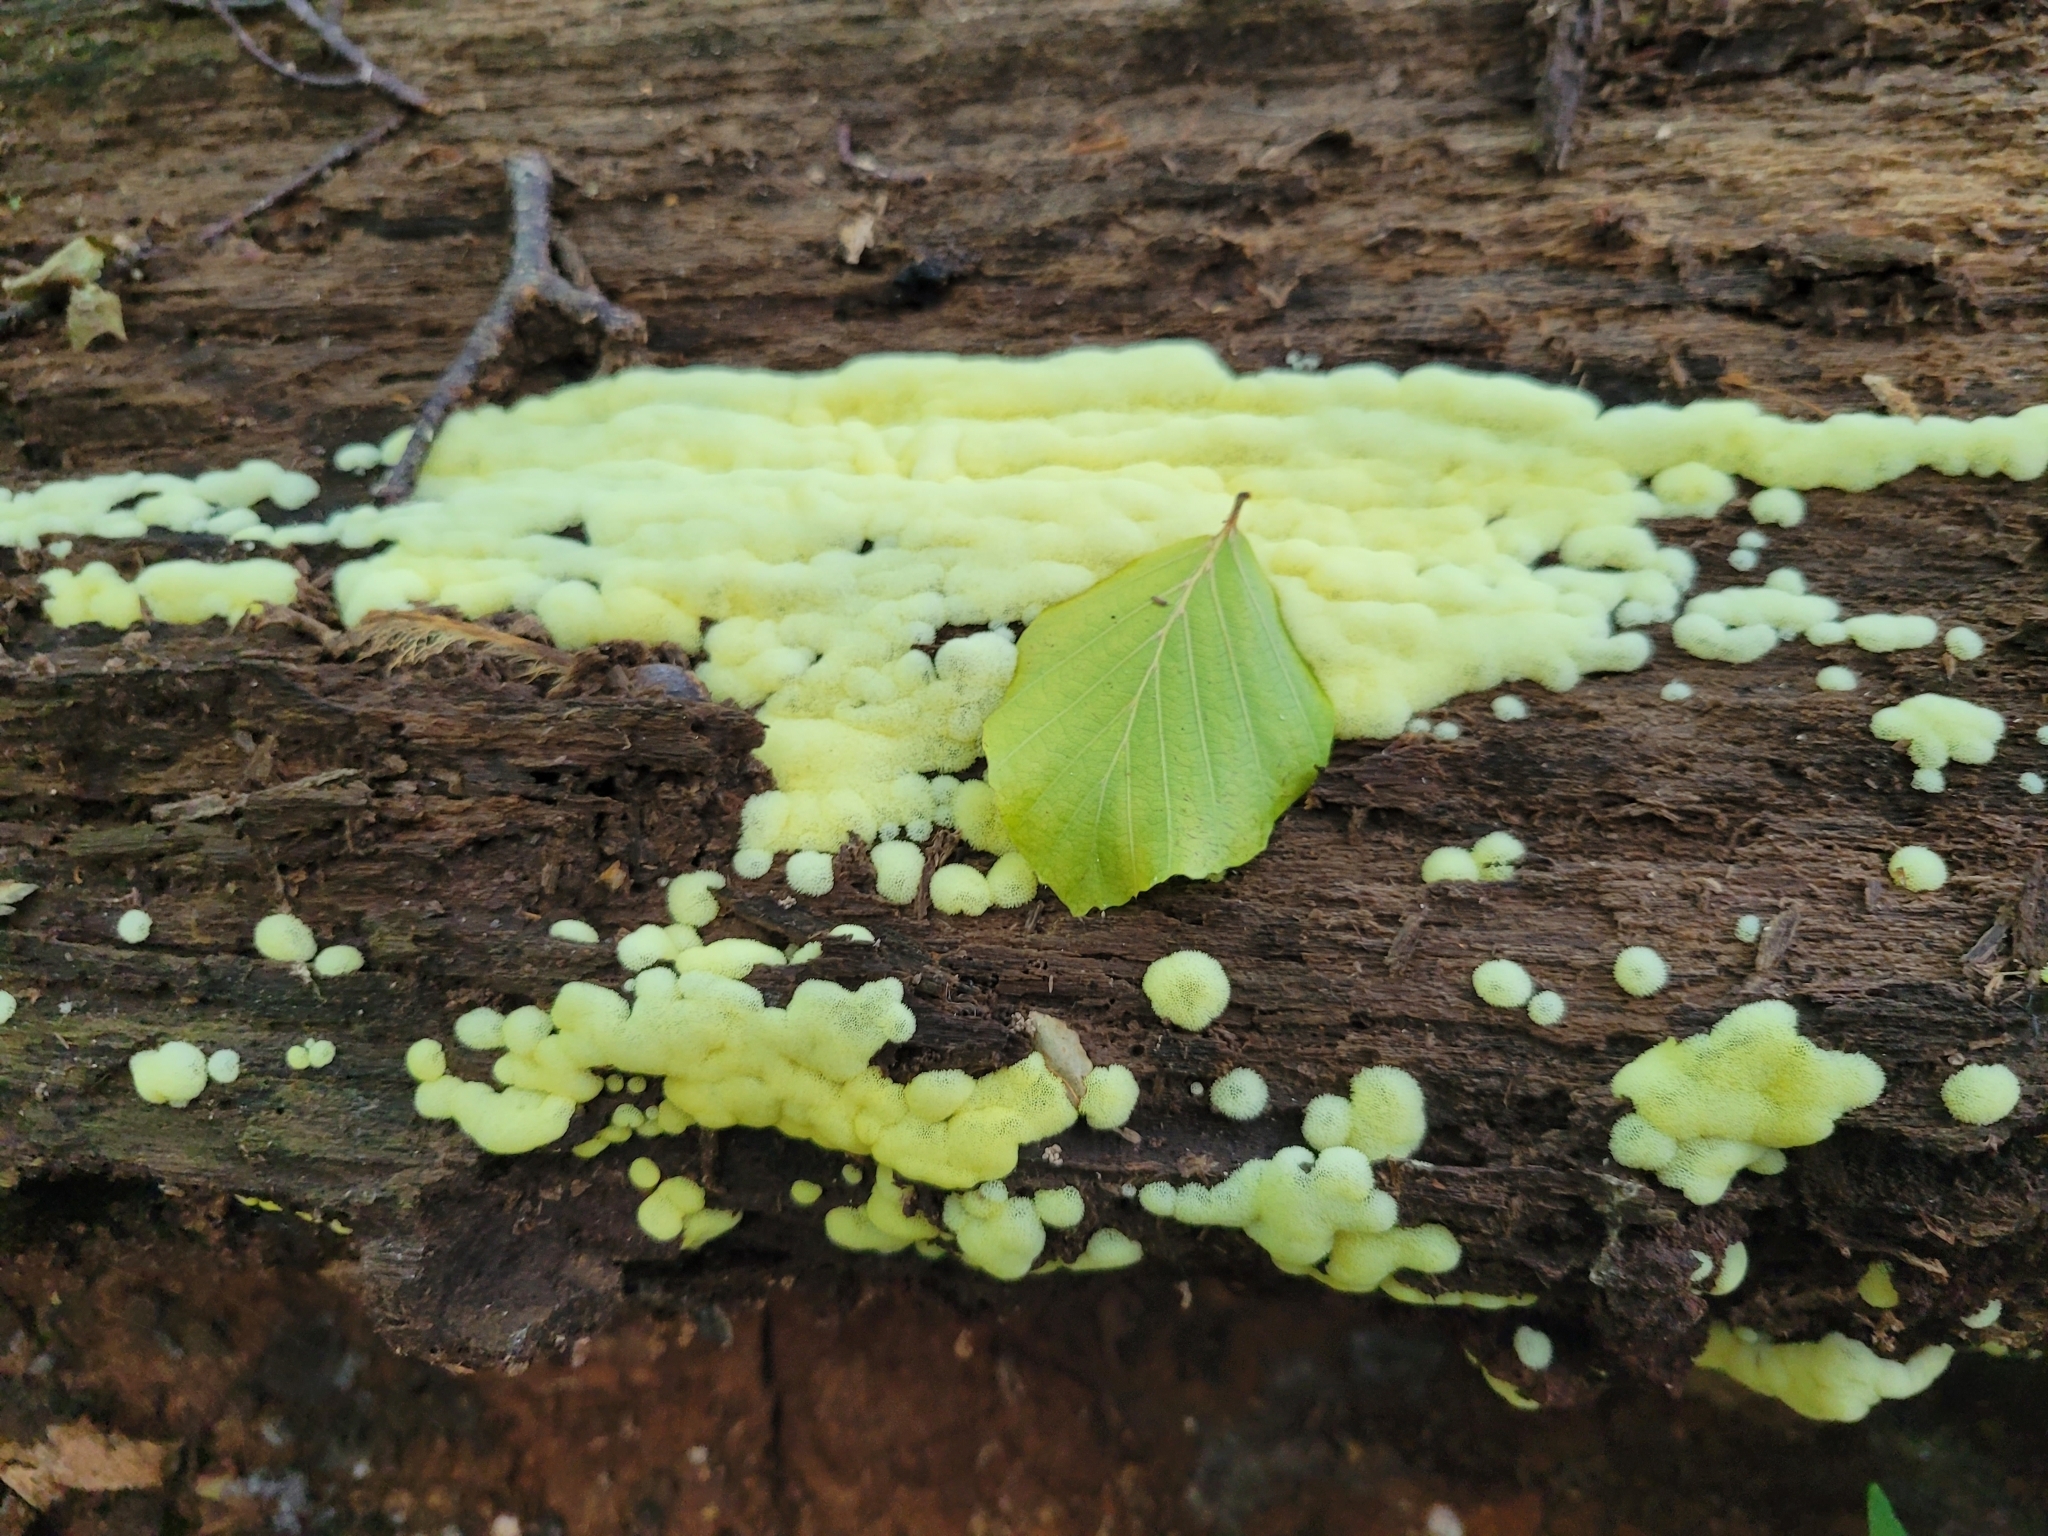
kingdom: Protozoa
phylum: Mycetozoa
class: Protosteliomycetes
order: Ceratiomyxales
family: Ceratiomyxaceae
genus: Ceratiomyxa
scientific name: Ceratiomyxa fruticulosa
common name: Honeycomb coral slime mold
